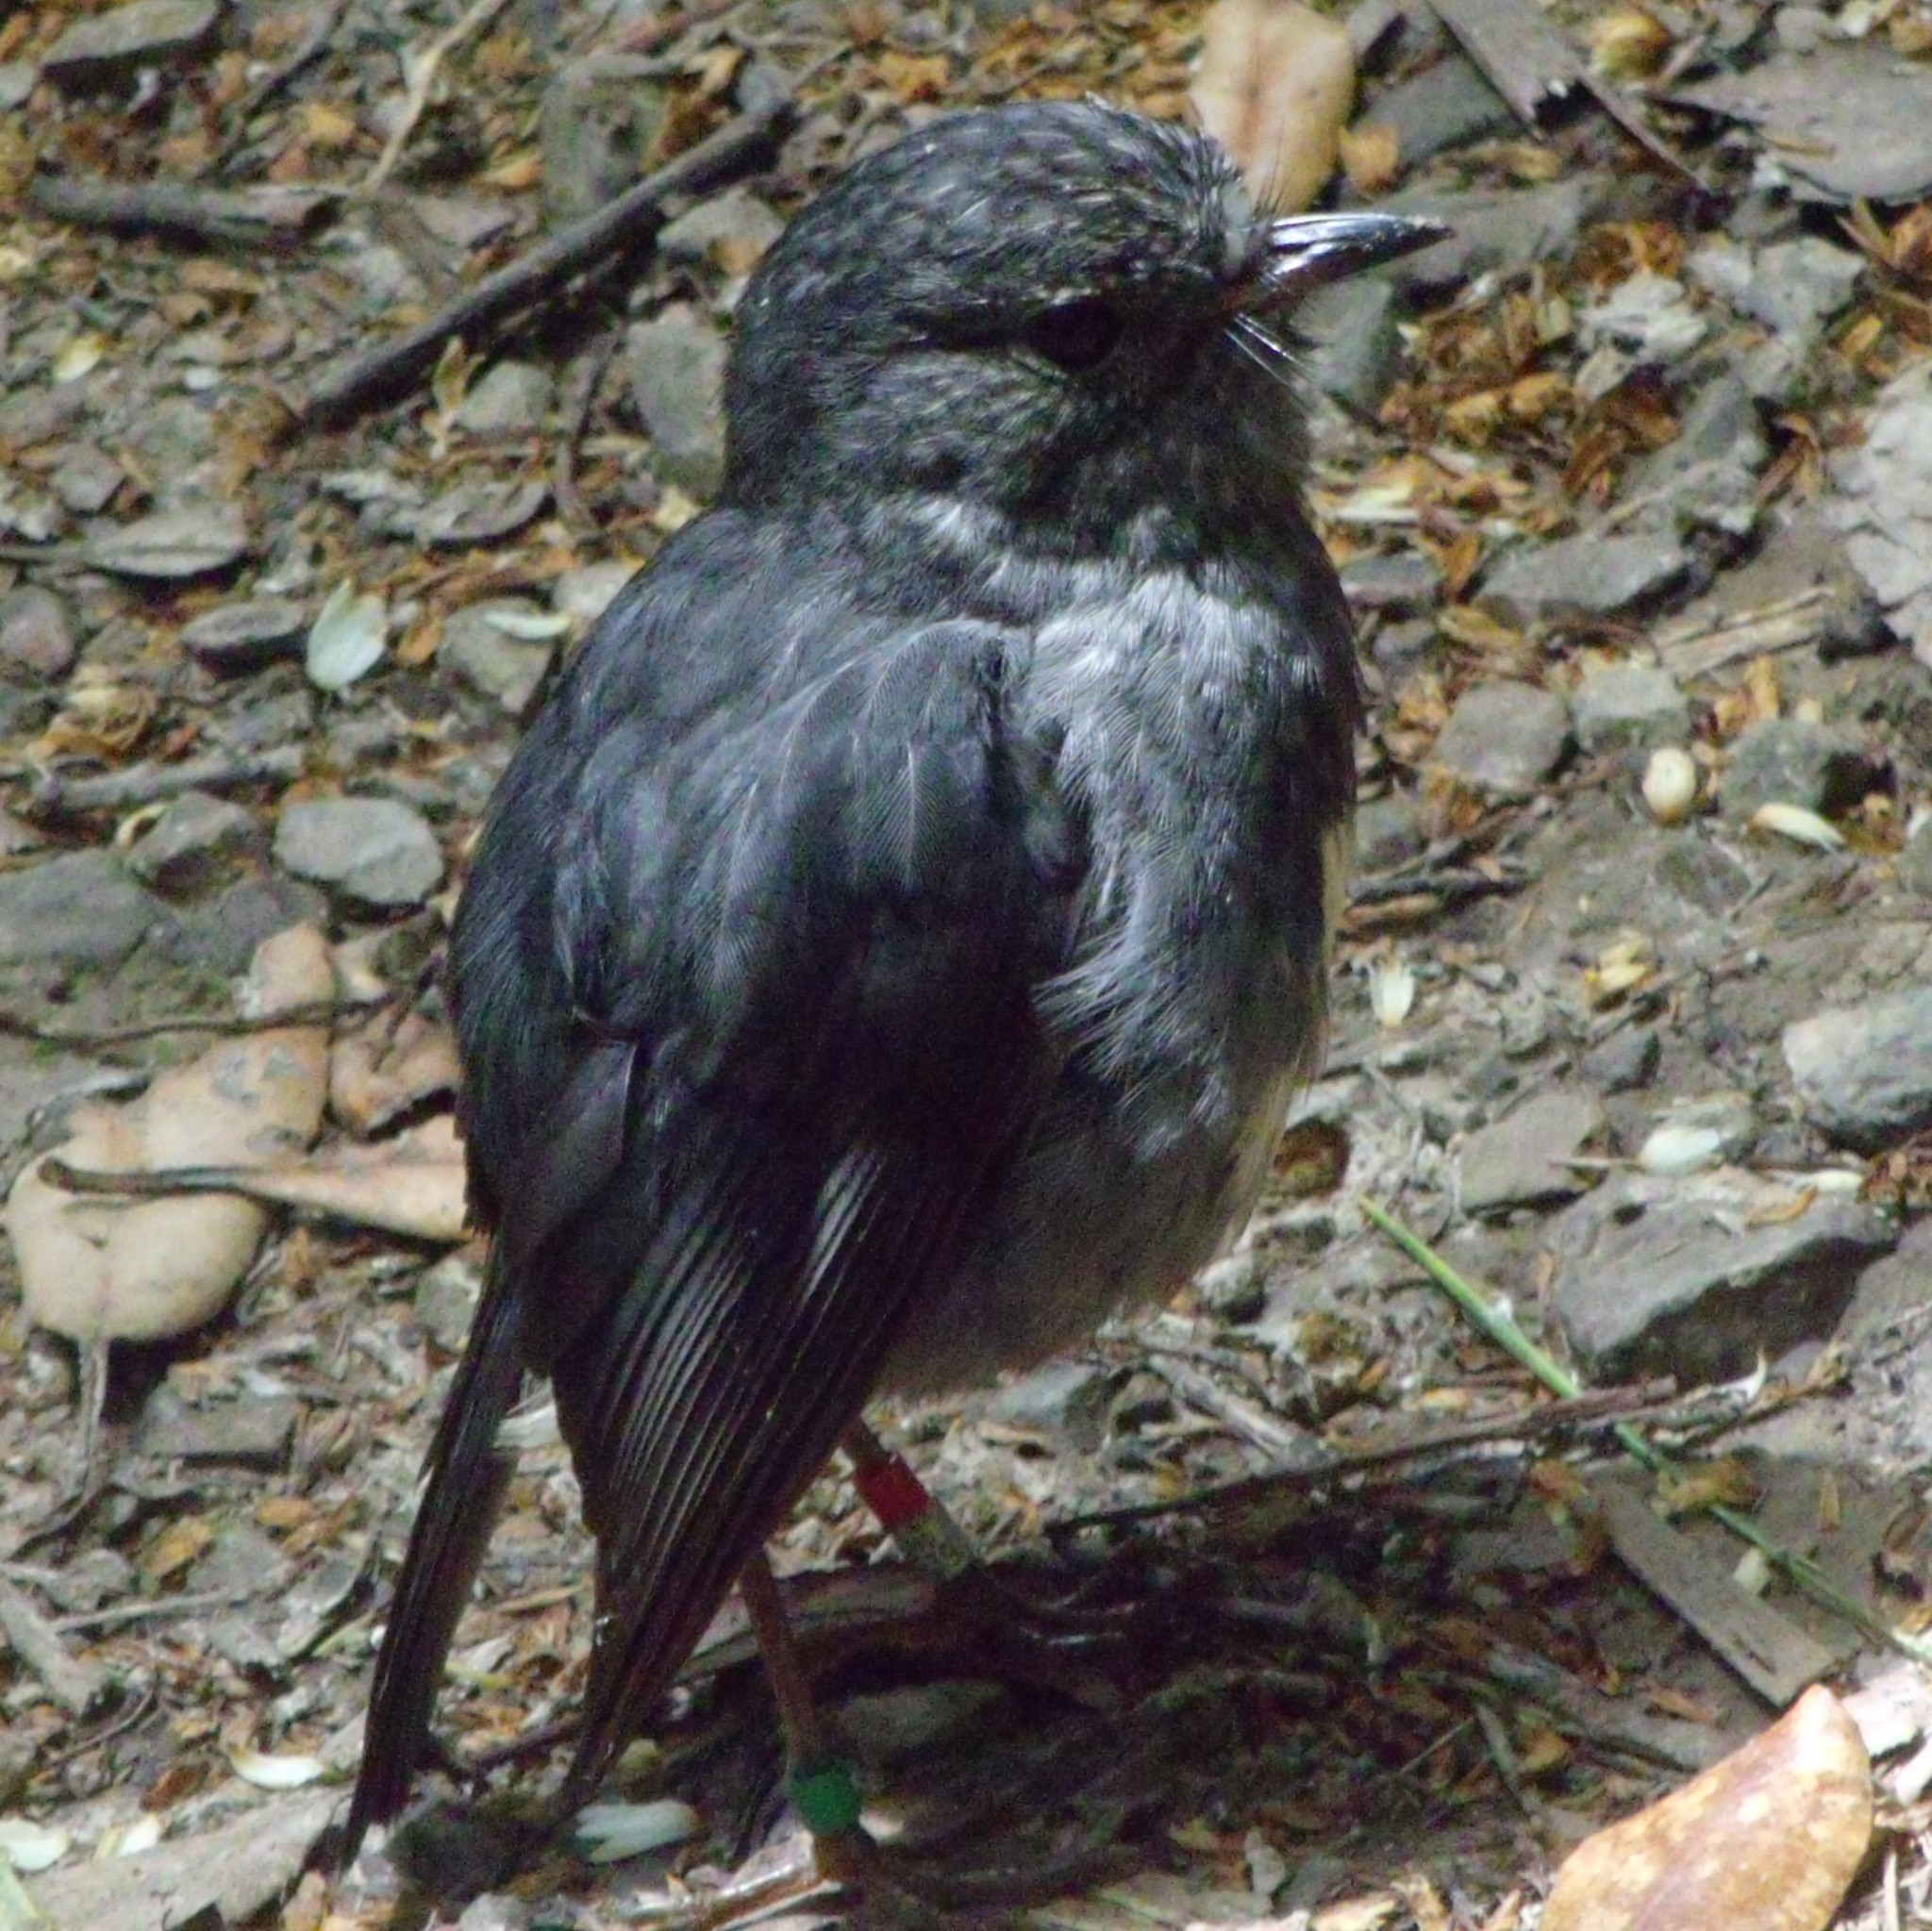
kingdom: Animalia
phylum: Chordata
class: Aves
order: Passeriformes
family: Petroicidae
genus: Petroica
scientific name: Petroica australis
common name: New zealand robin
